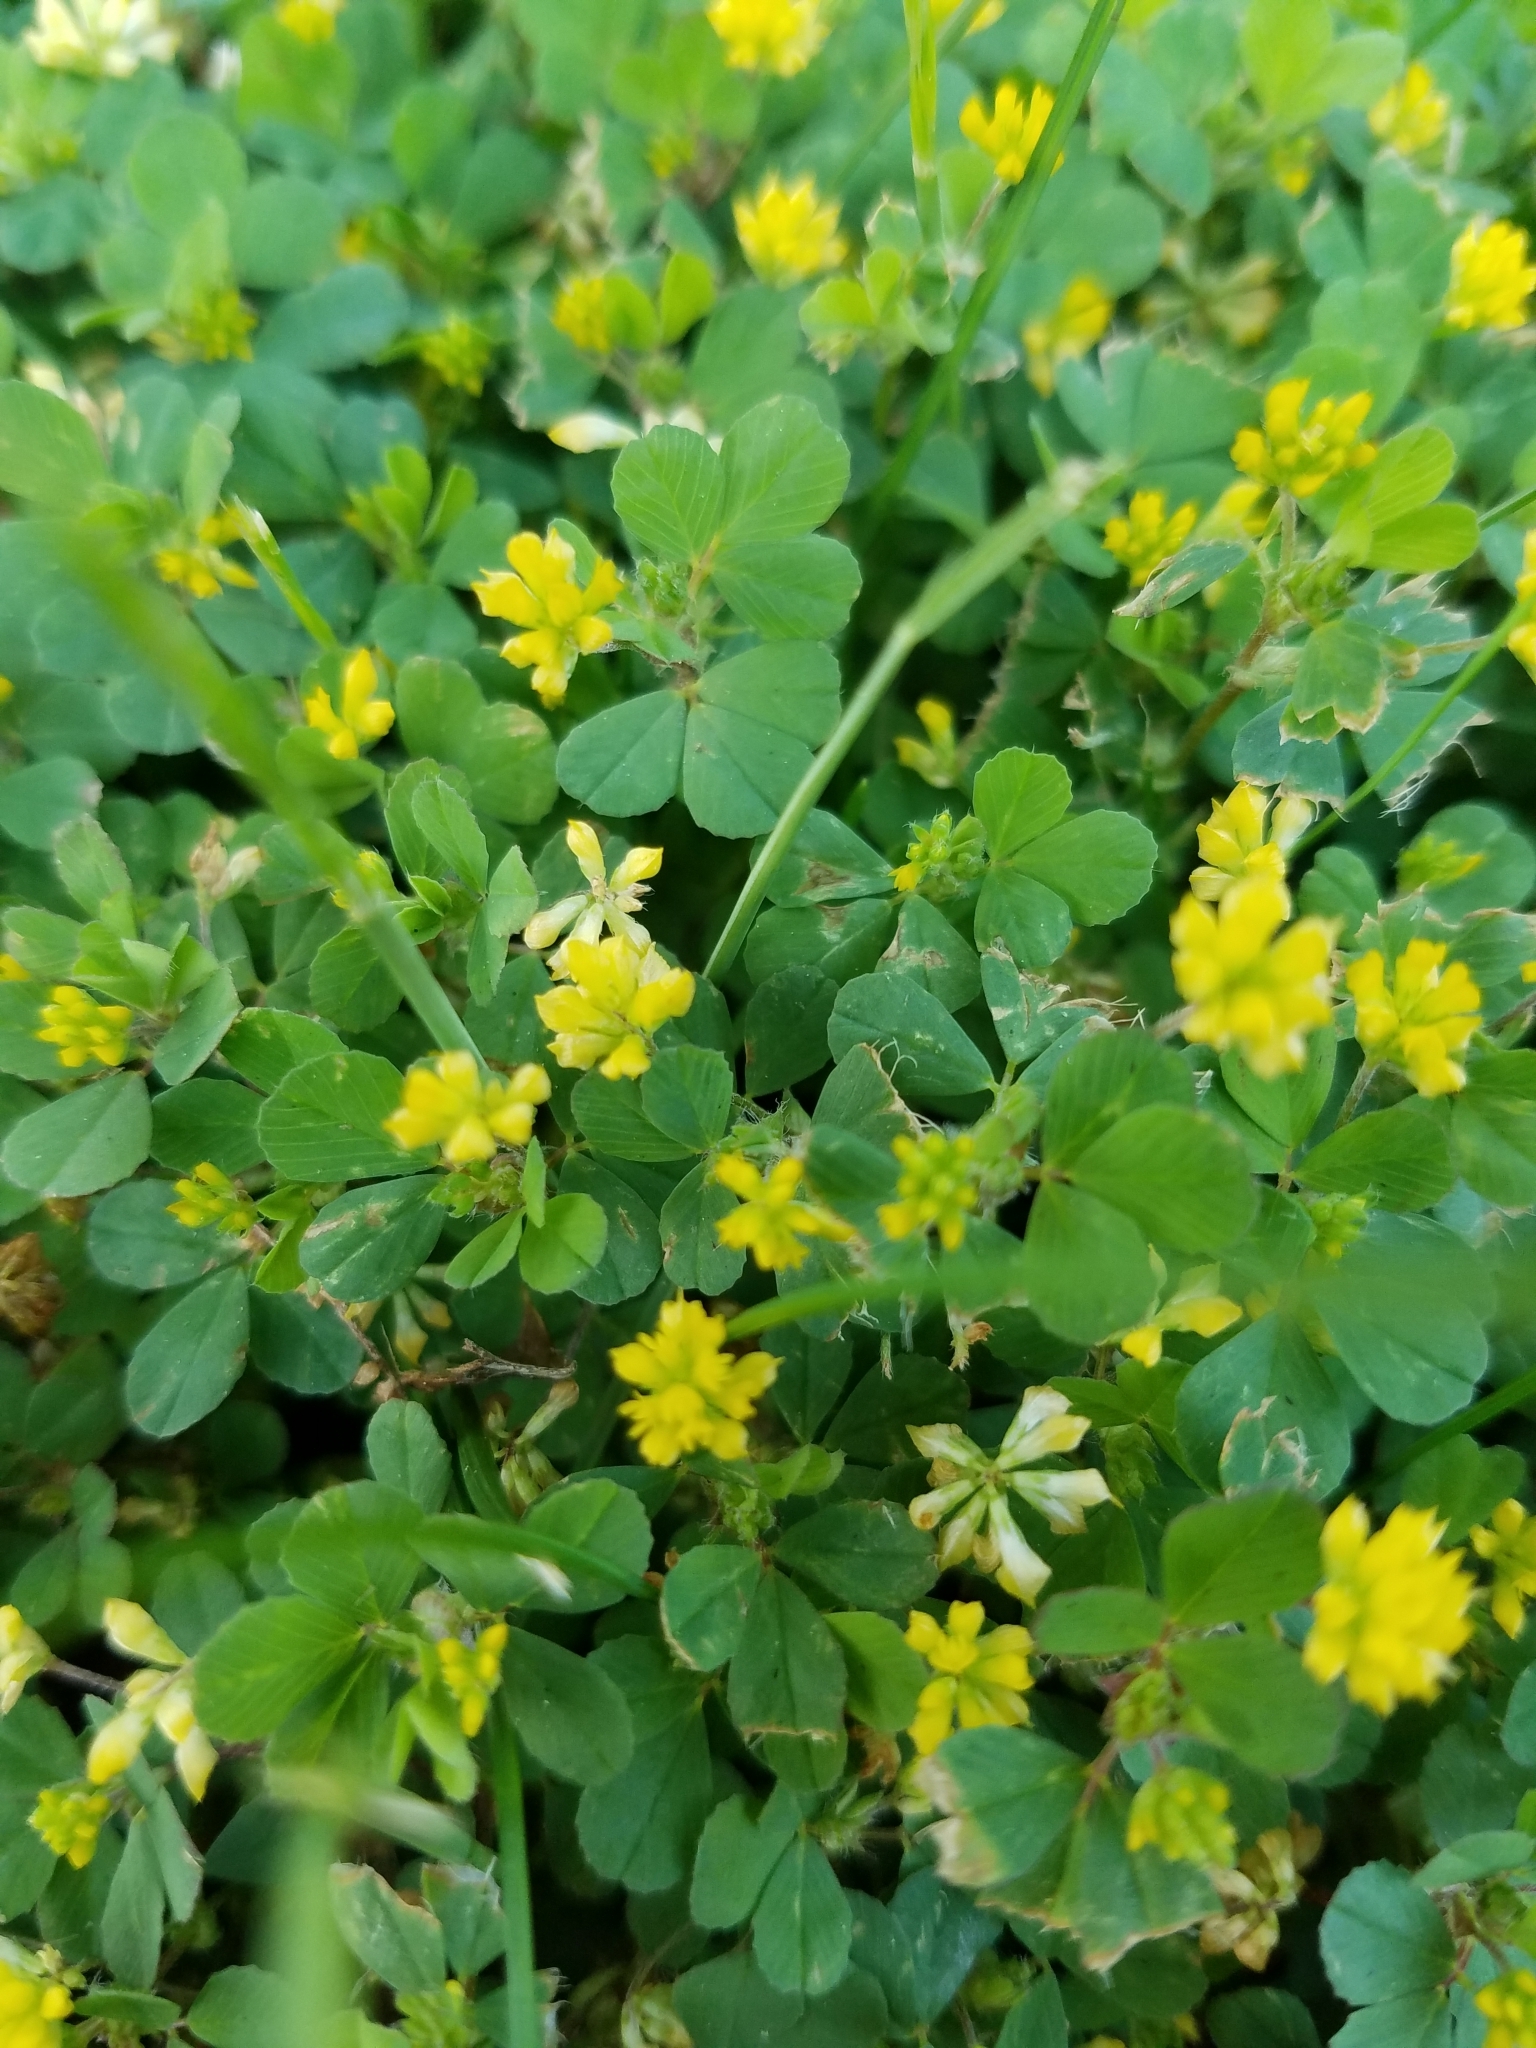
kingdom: Plantae
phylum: Tracheophyta
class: Magnoliopsida
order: Fabales
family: Fabaceae
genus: Trifolium
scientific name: Trifolium dubium
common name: Suckling clover
